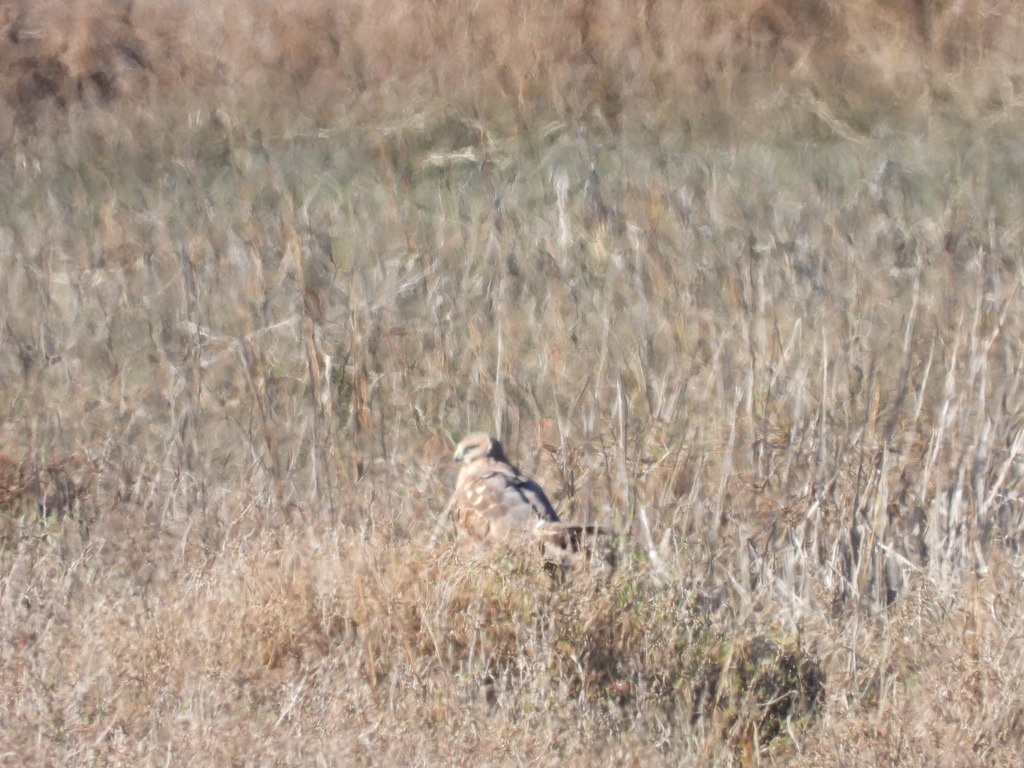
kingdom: Animalia
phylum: Chordata
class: Aves
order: Accipitriformes
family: Accipitridae
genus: Circus
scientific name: Circus cyaneus
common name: Hen harrier
